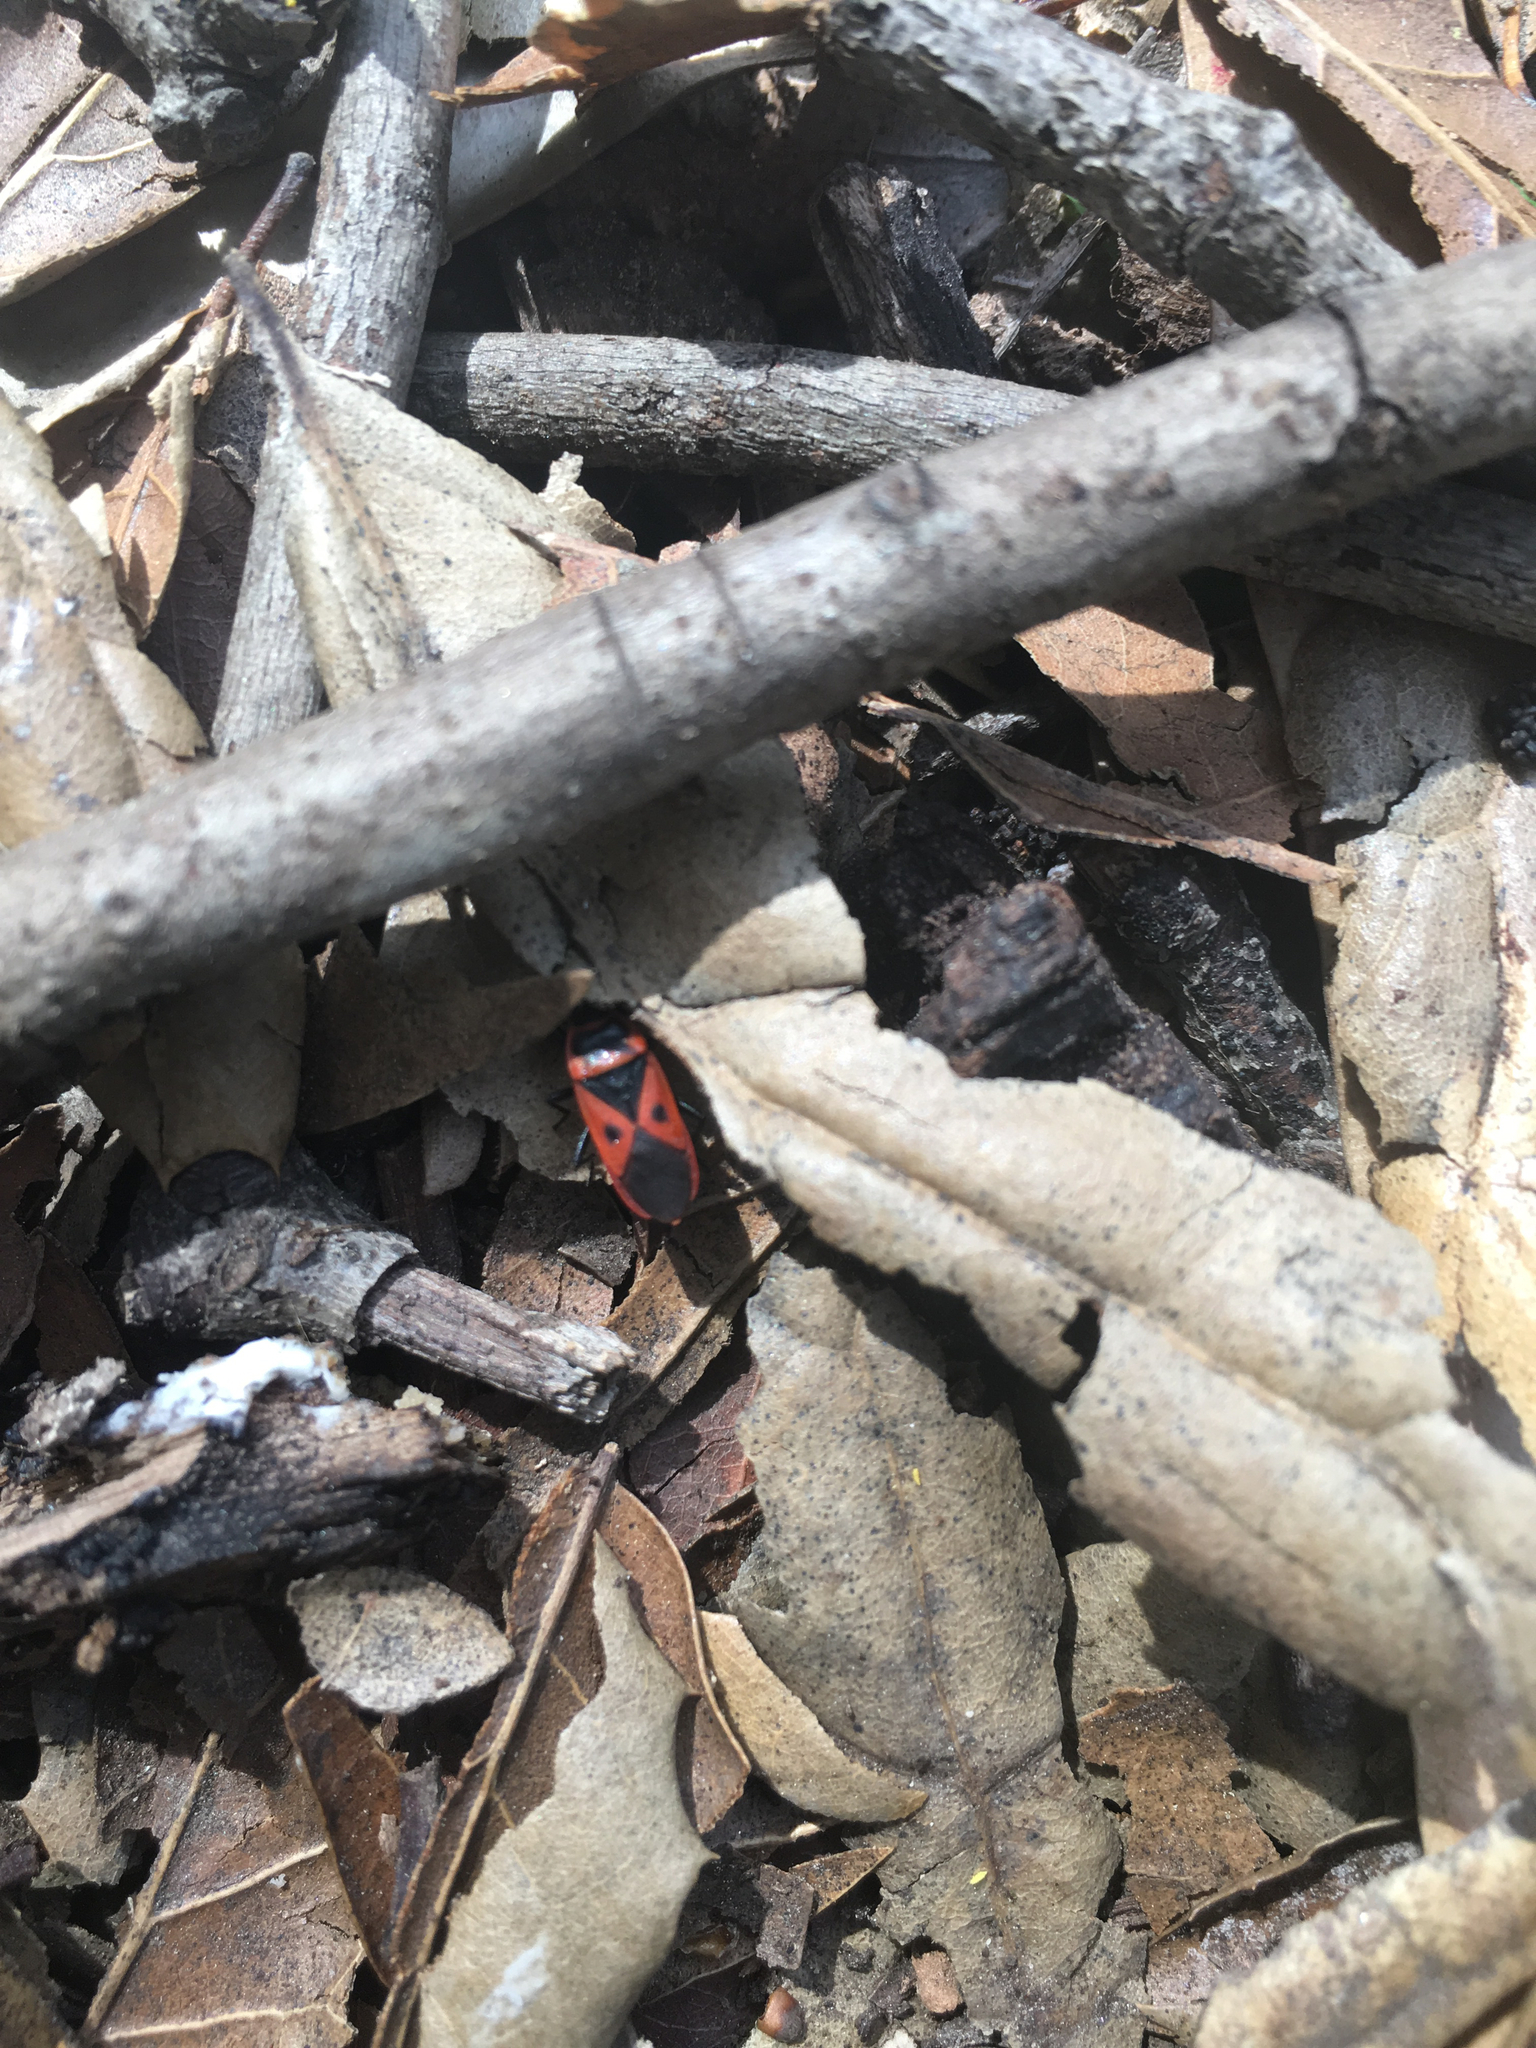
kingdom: Animalia
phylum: Arthropoda
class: Insecta
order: Hemiptera
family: Pyrrhocoridae
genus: Scantius
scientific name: Scantius aegyptius
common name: Red bug
